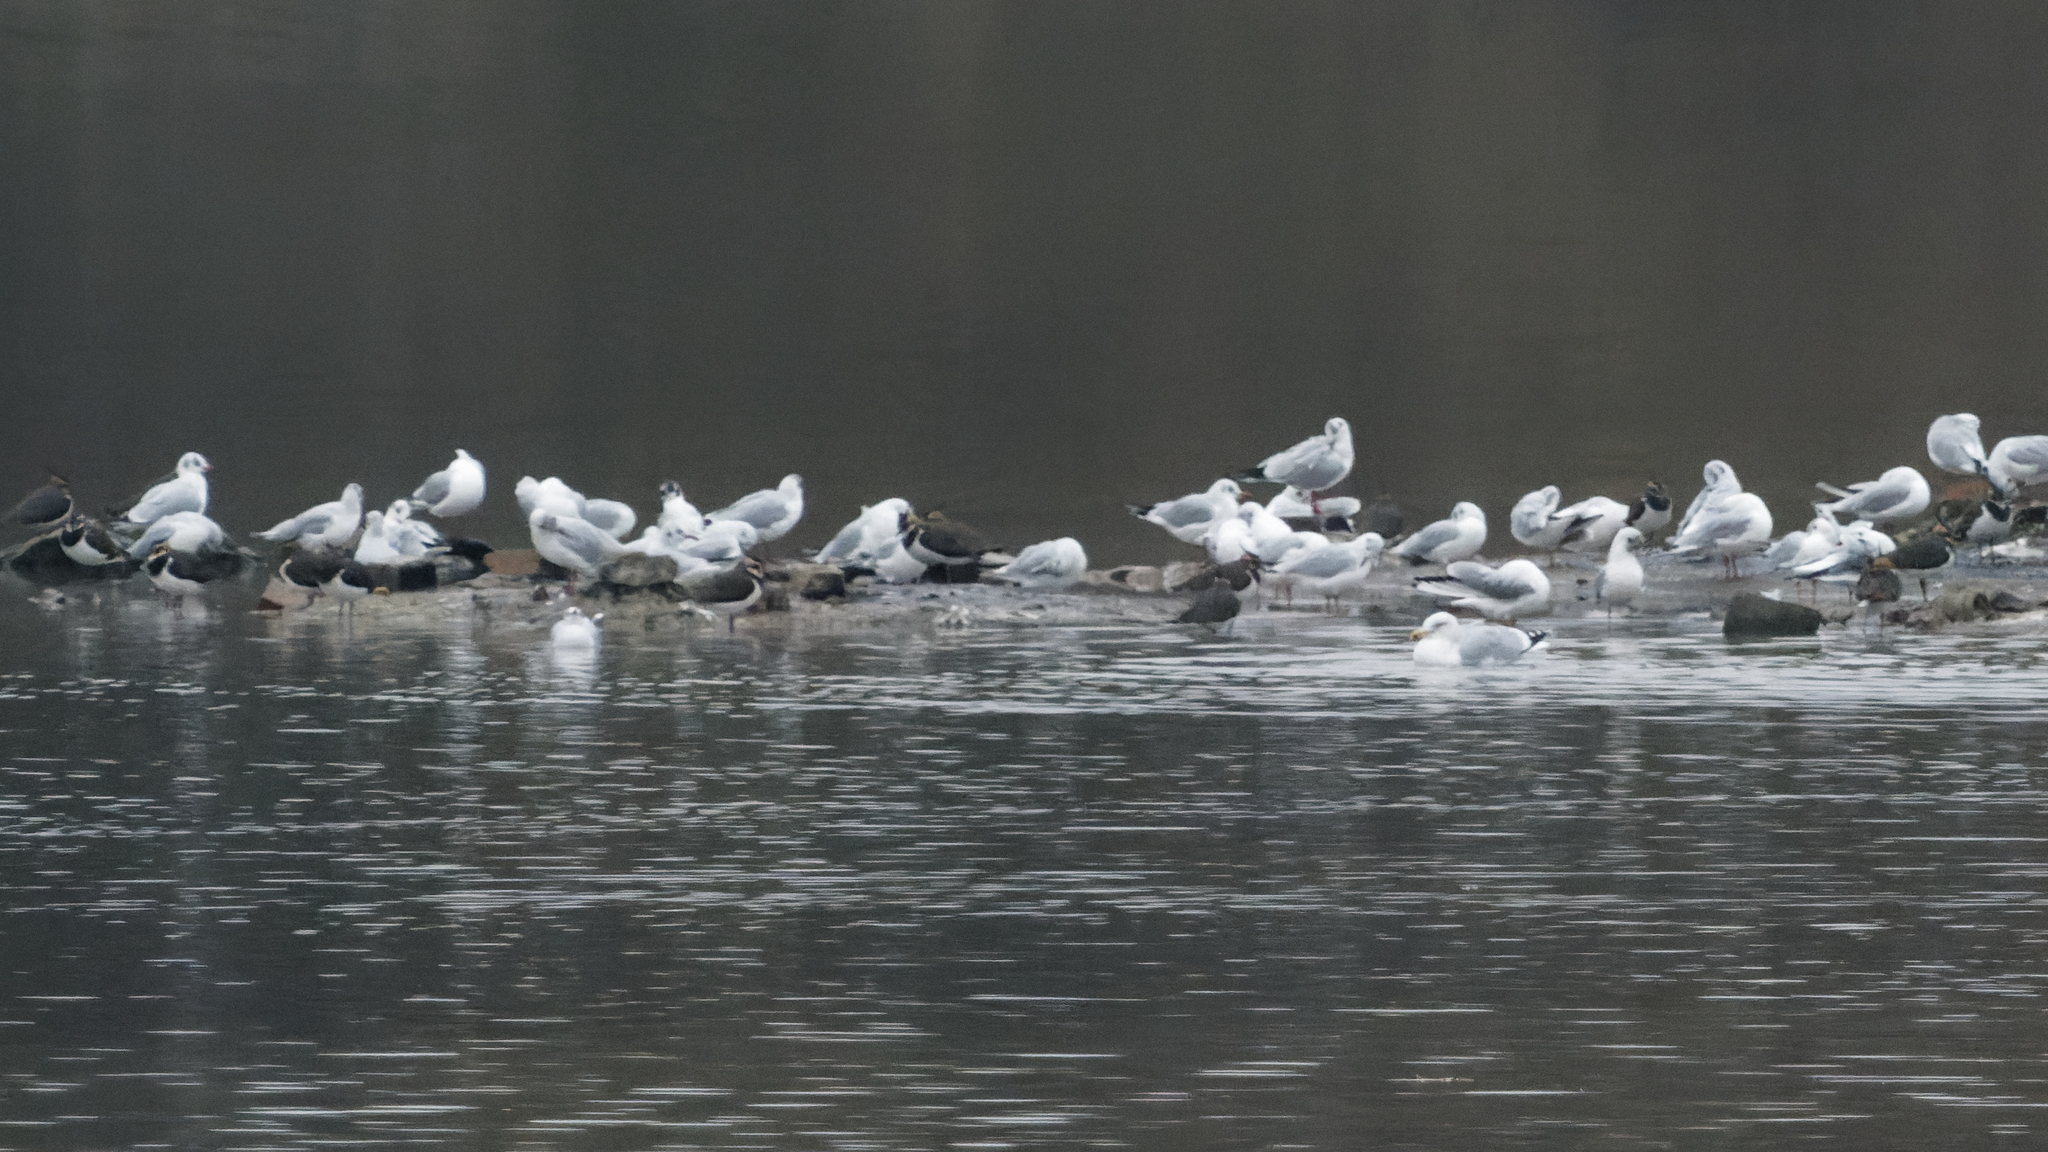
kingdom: Animalia
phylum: Chordata
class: Aves
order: Charadriiformes
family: Laridae
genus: Chroicocephalus
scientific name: Chroicocephalus ridibundus
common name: Black-headed gull
